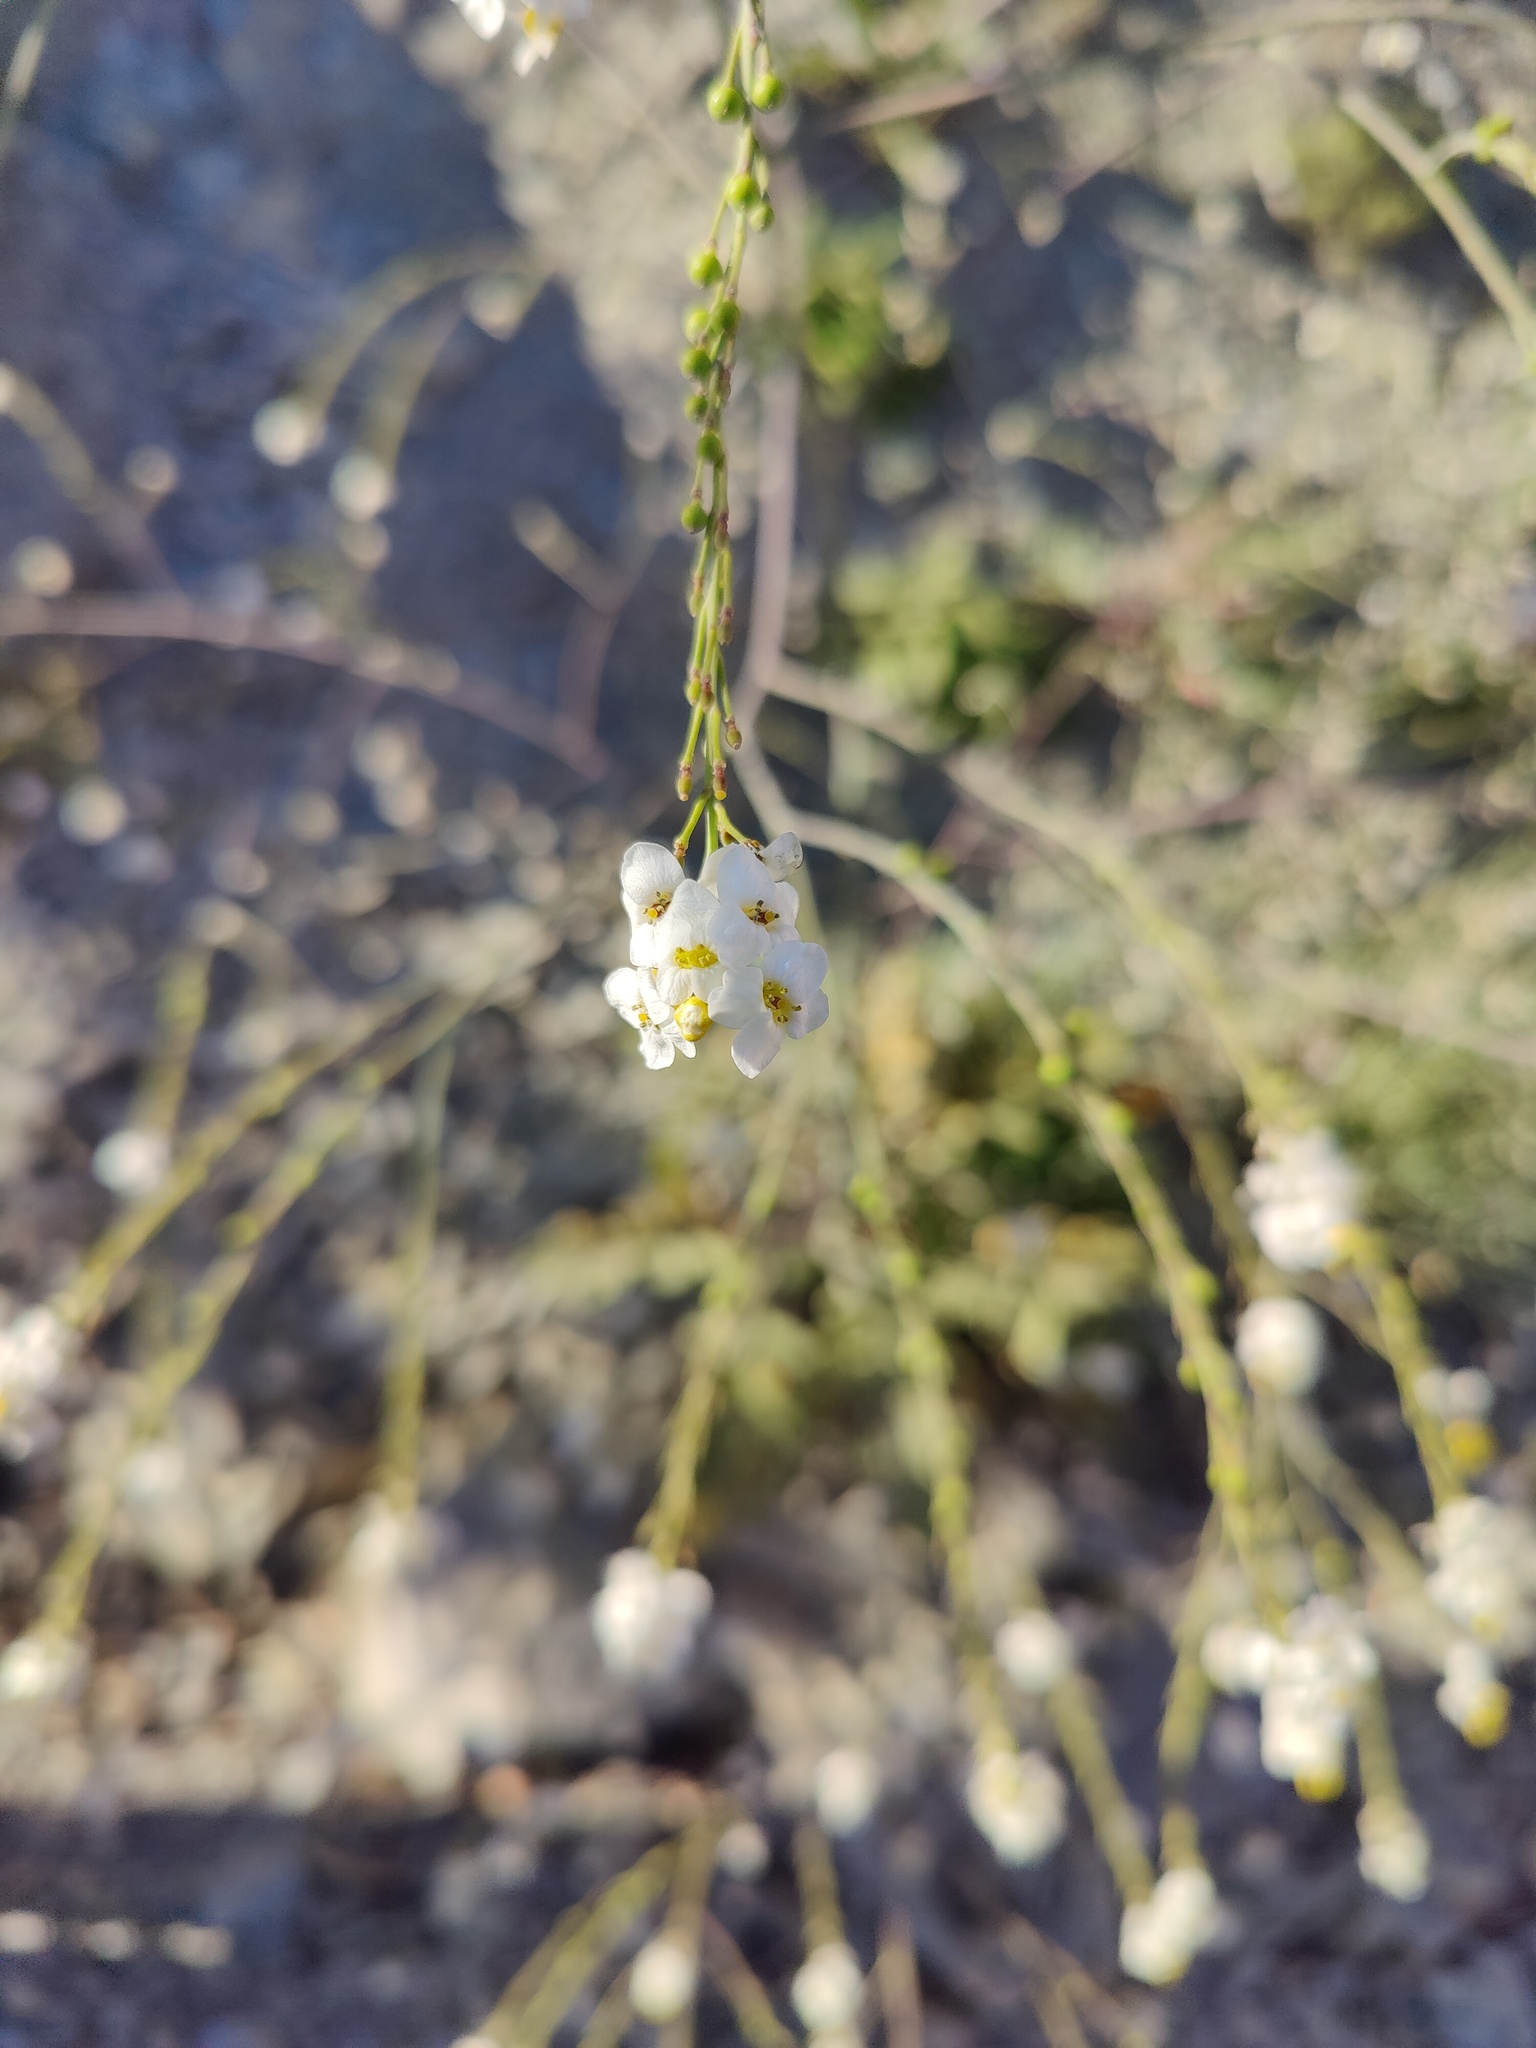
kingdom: Plantae
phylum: Tracheophyta
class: Magnoliopsida
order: Brassicales
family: Brassicaceae
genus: Crambe
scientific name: Crambe koktebelica
